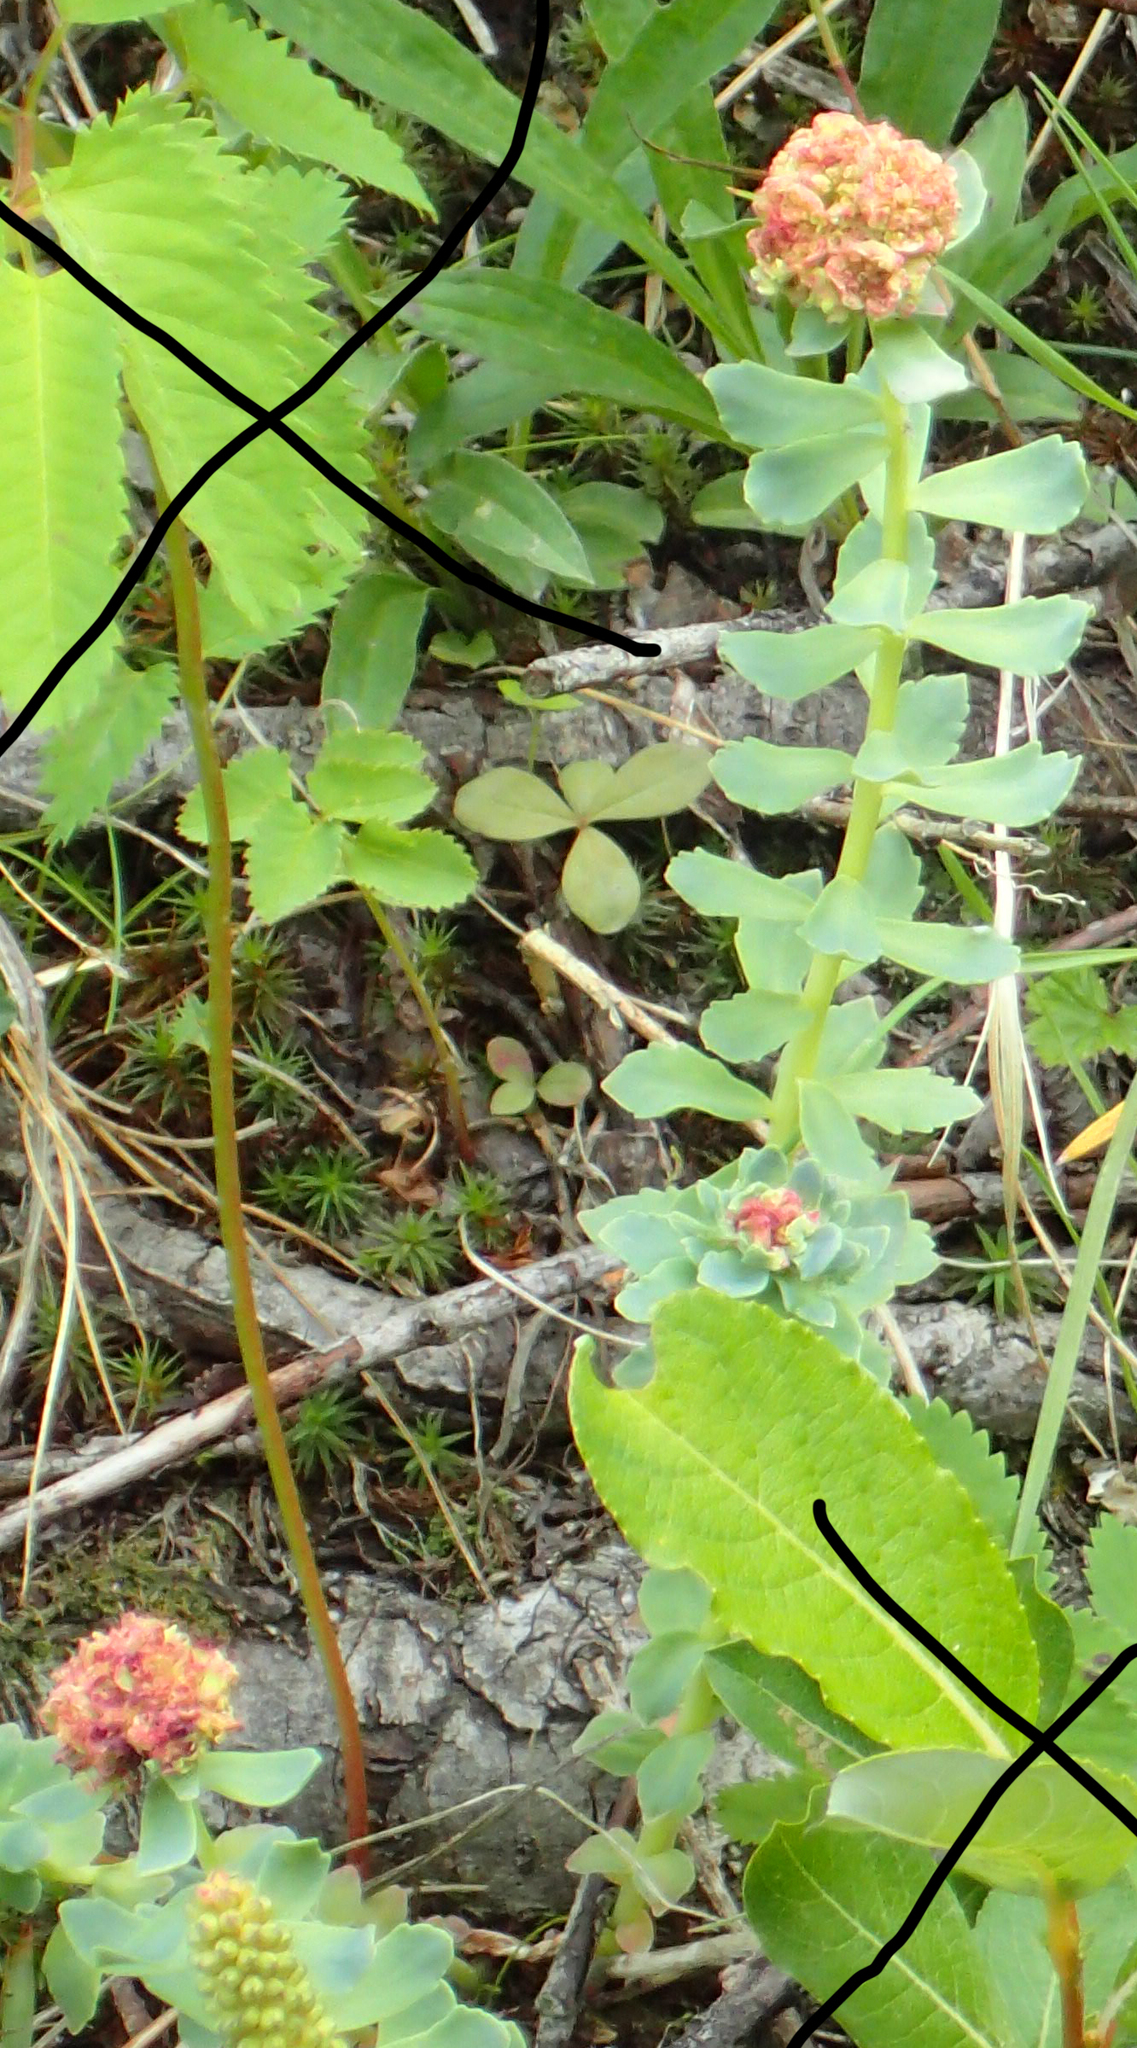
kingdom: Plantae
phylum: Tracheophyta
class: Magnoliopsida
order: Saxifragales
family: Crassulaceae
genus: Rhodiola
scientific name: Rhodiola integrifolia
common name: Western roseroot
